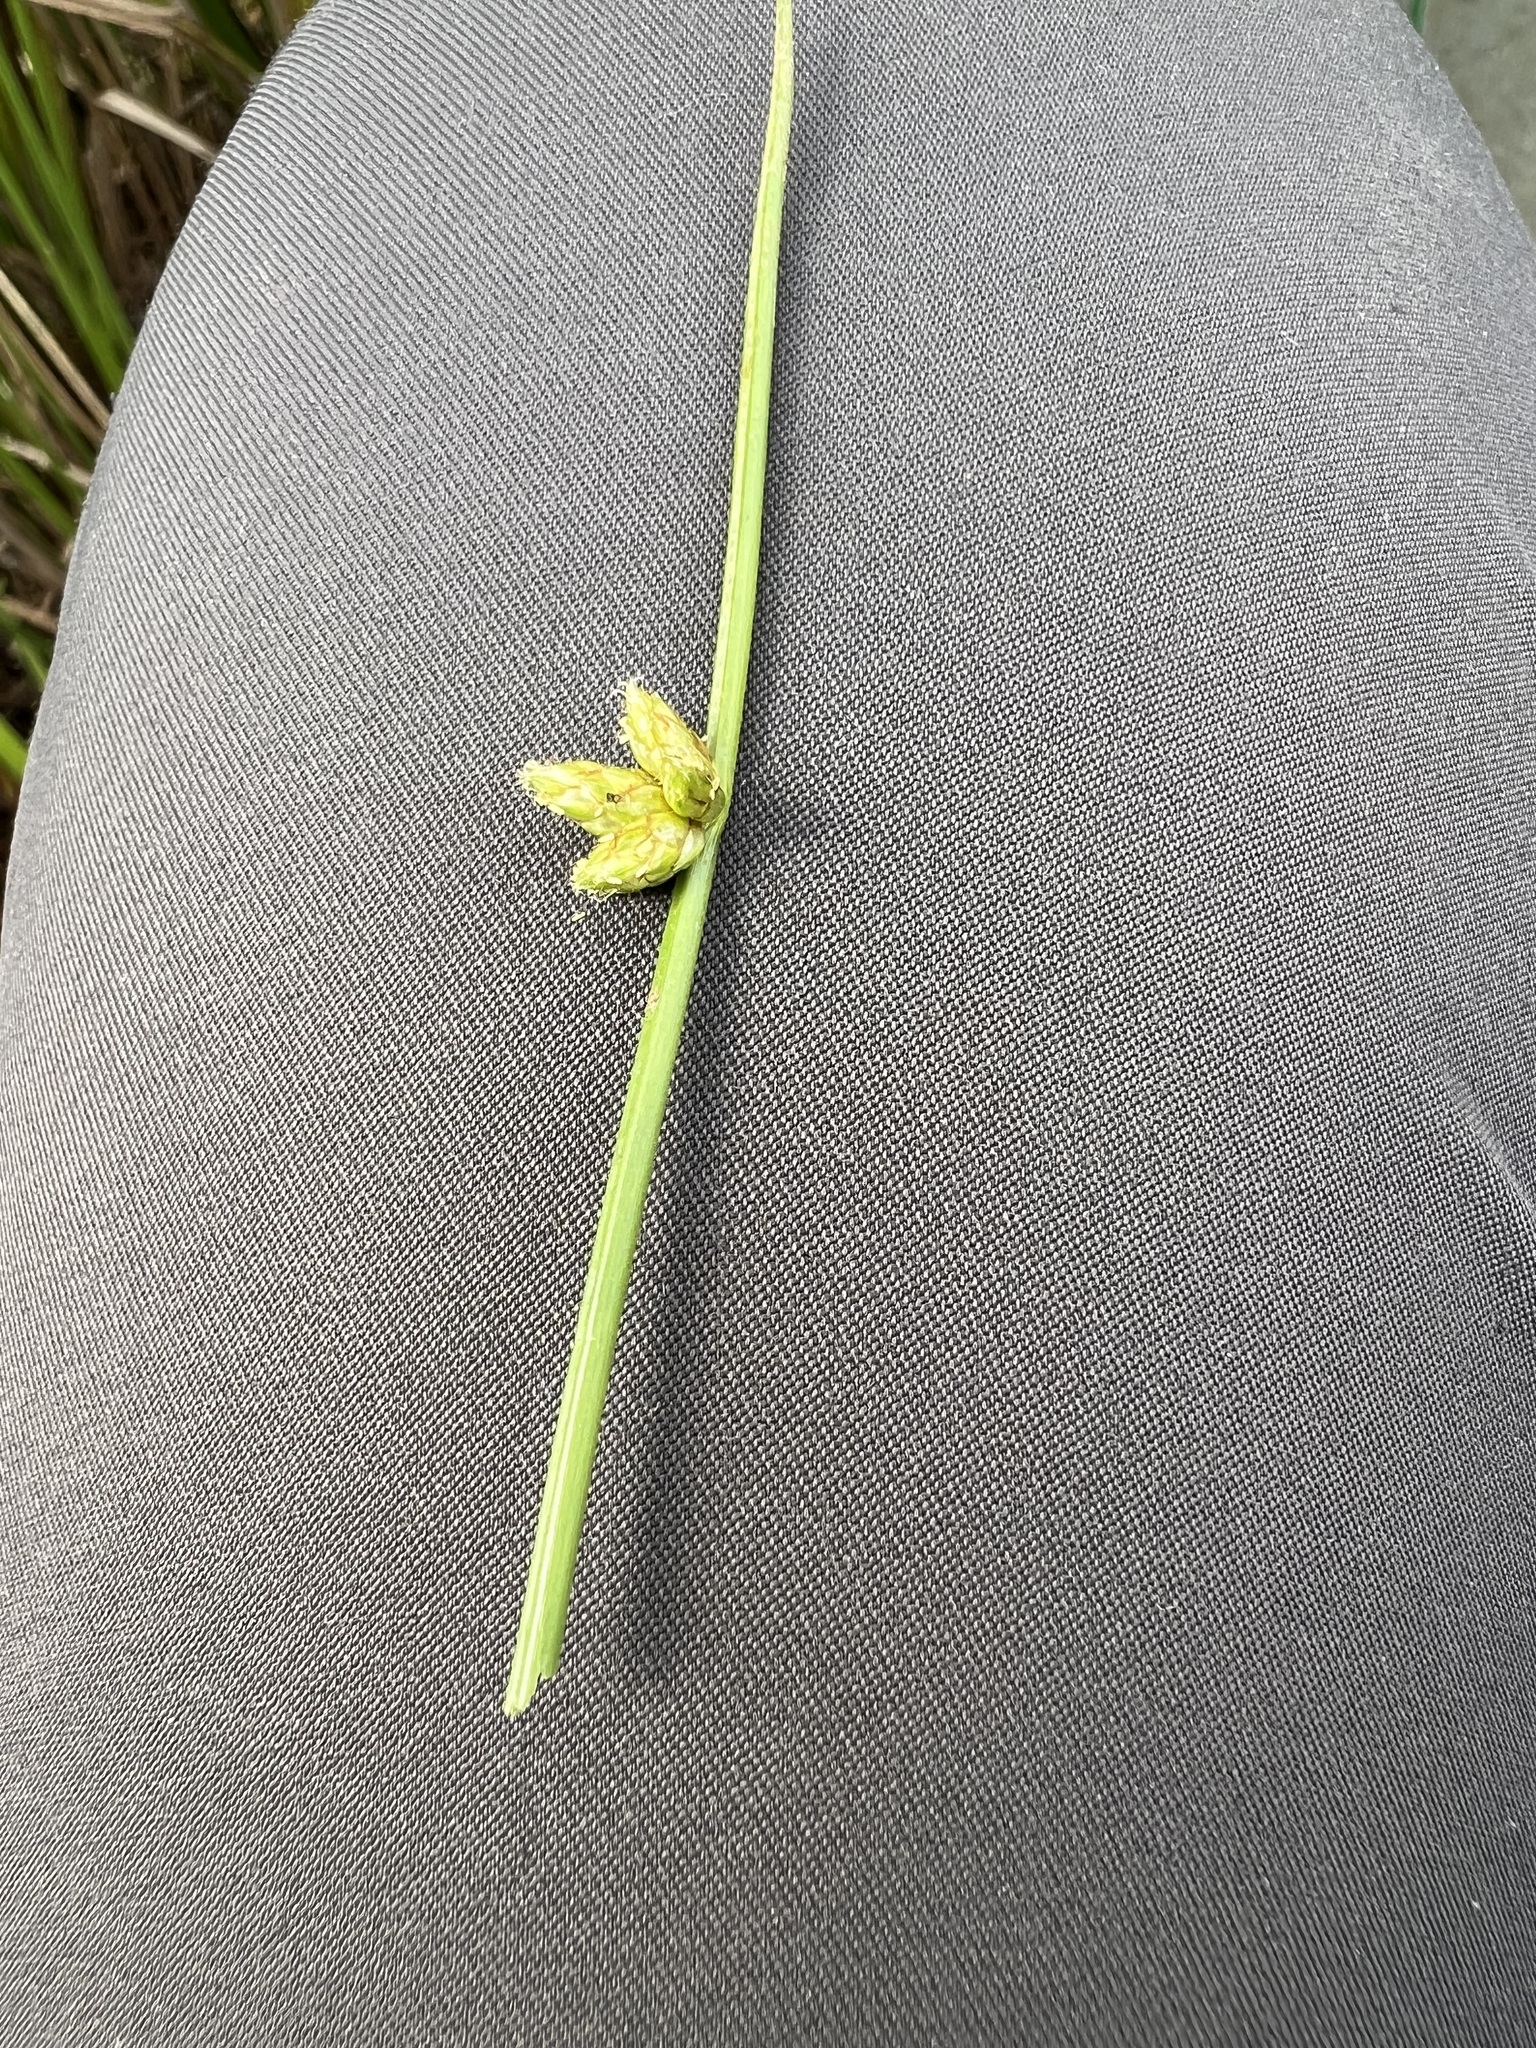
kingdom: Plantae
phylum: Tracheophyta
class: Liliopsida
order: Poales
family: Cyperaceae
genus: Cyperus
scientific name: Cyperus flavescens
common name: Yellow galingale
